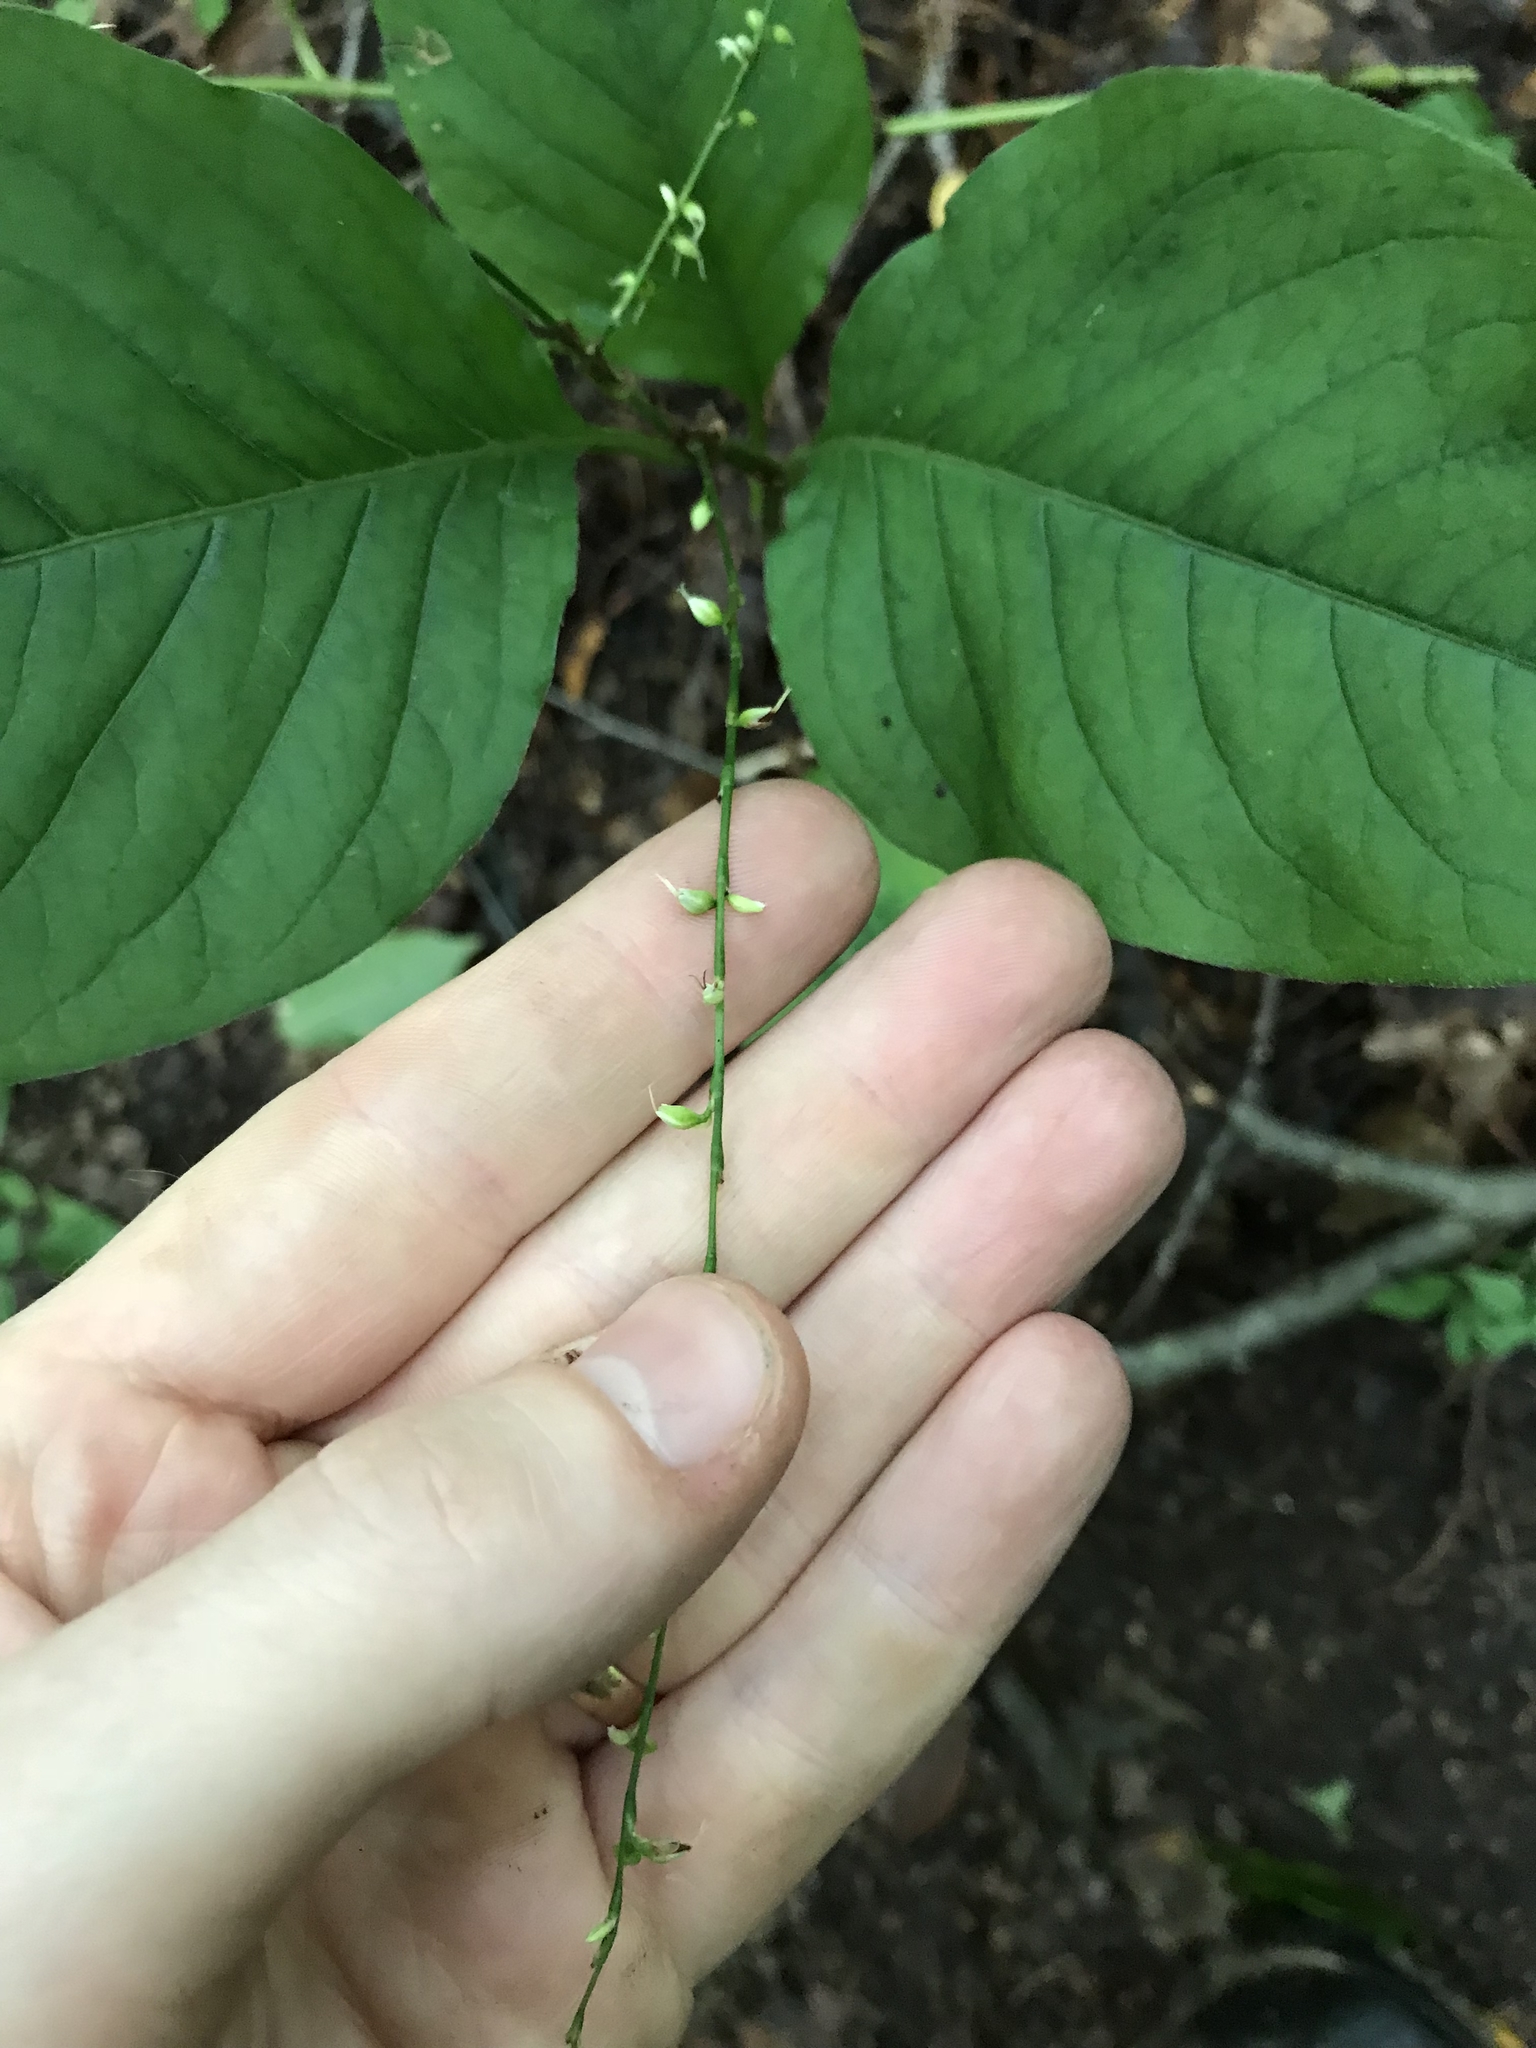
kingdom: Plantae
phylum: Tracheophyta
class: Magnoliopsida
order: Caryophyllales
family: Polygonaceae
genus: Persicaria
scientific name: Persicaria virginiana
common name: Jumpseed
